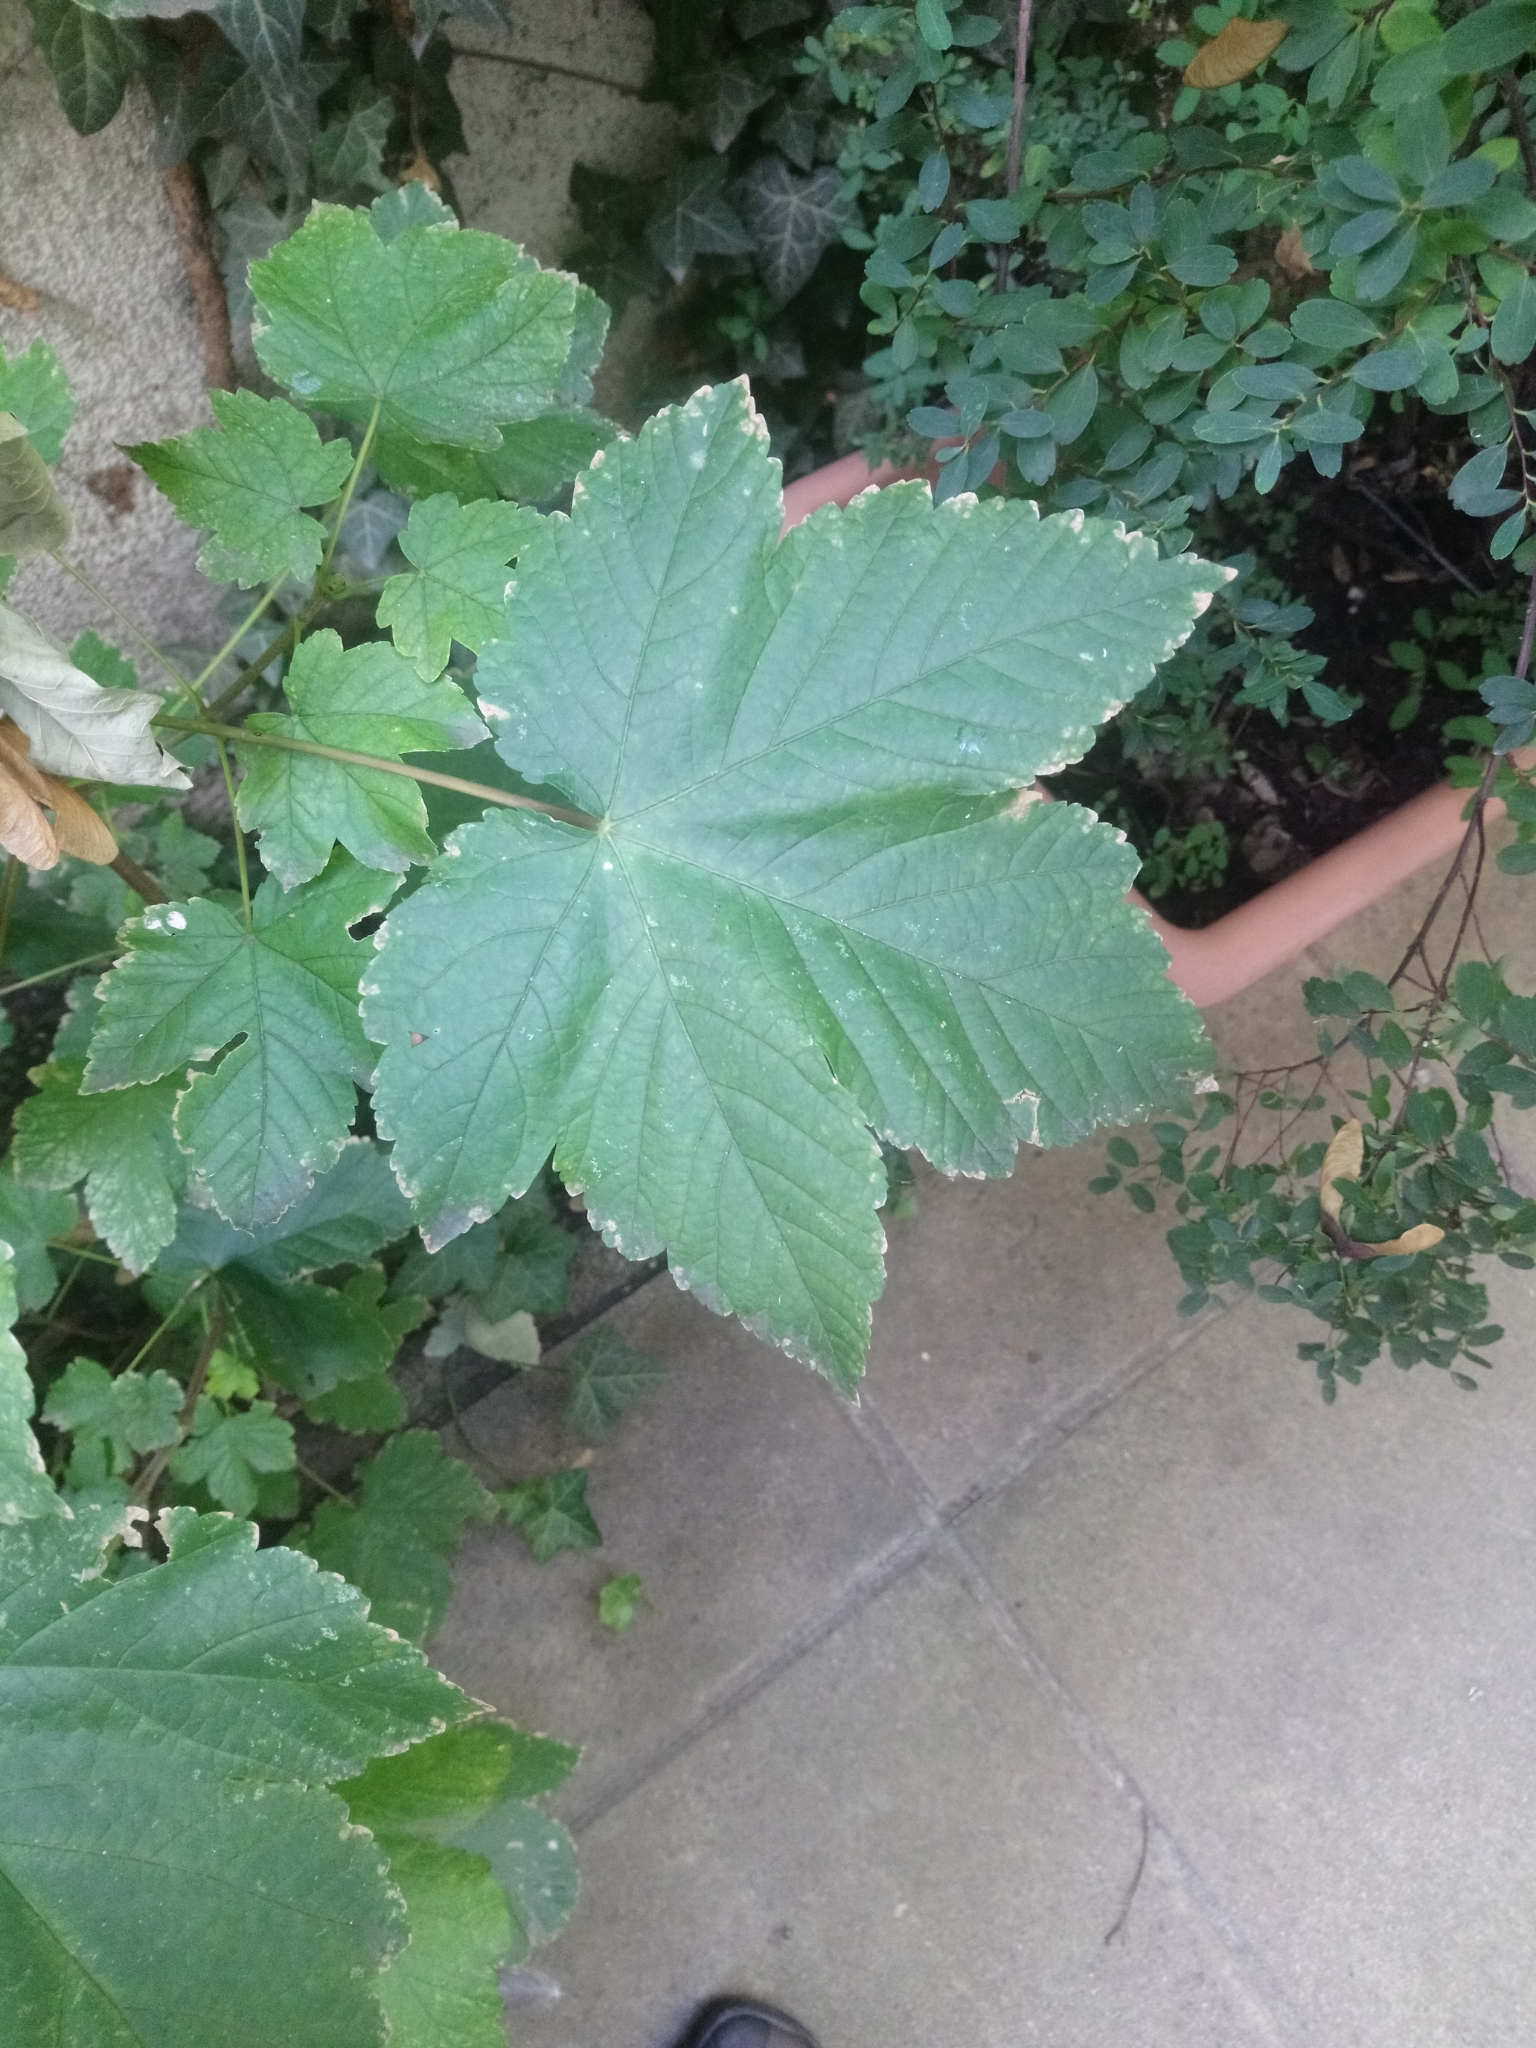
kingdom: Plantae
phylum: Tracheophyta
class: Magnoliopsida
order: Sapindales
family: Sapindaceae
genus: Acer
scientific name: Acer pseudoplatanus
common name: Sycamore
